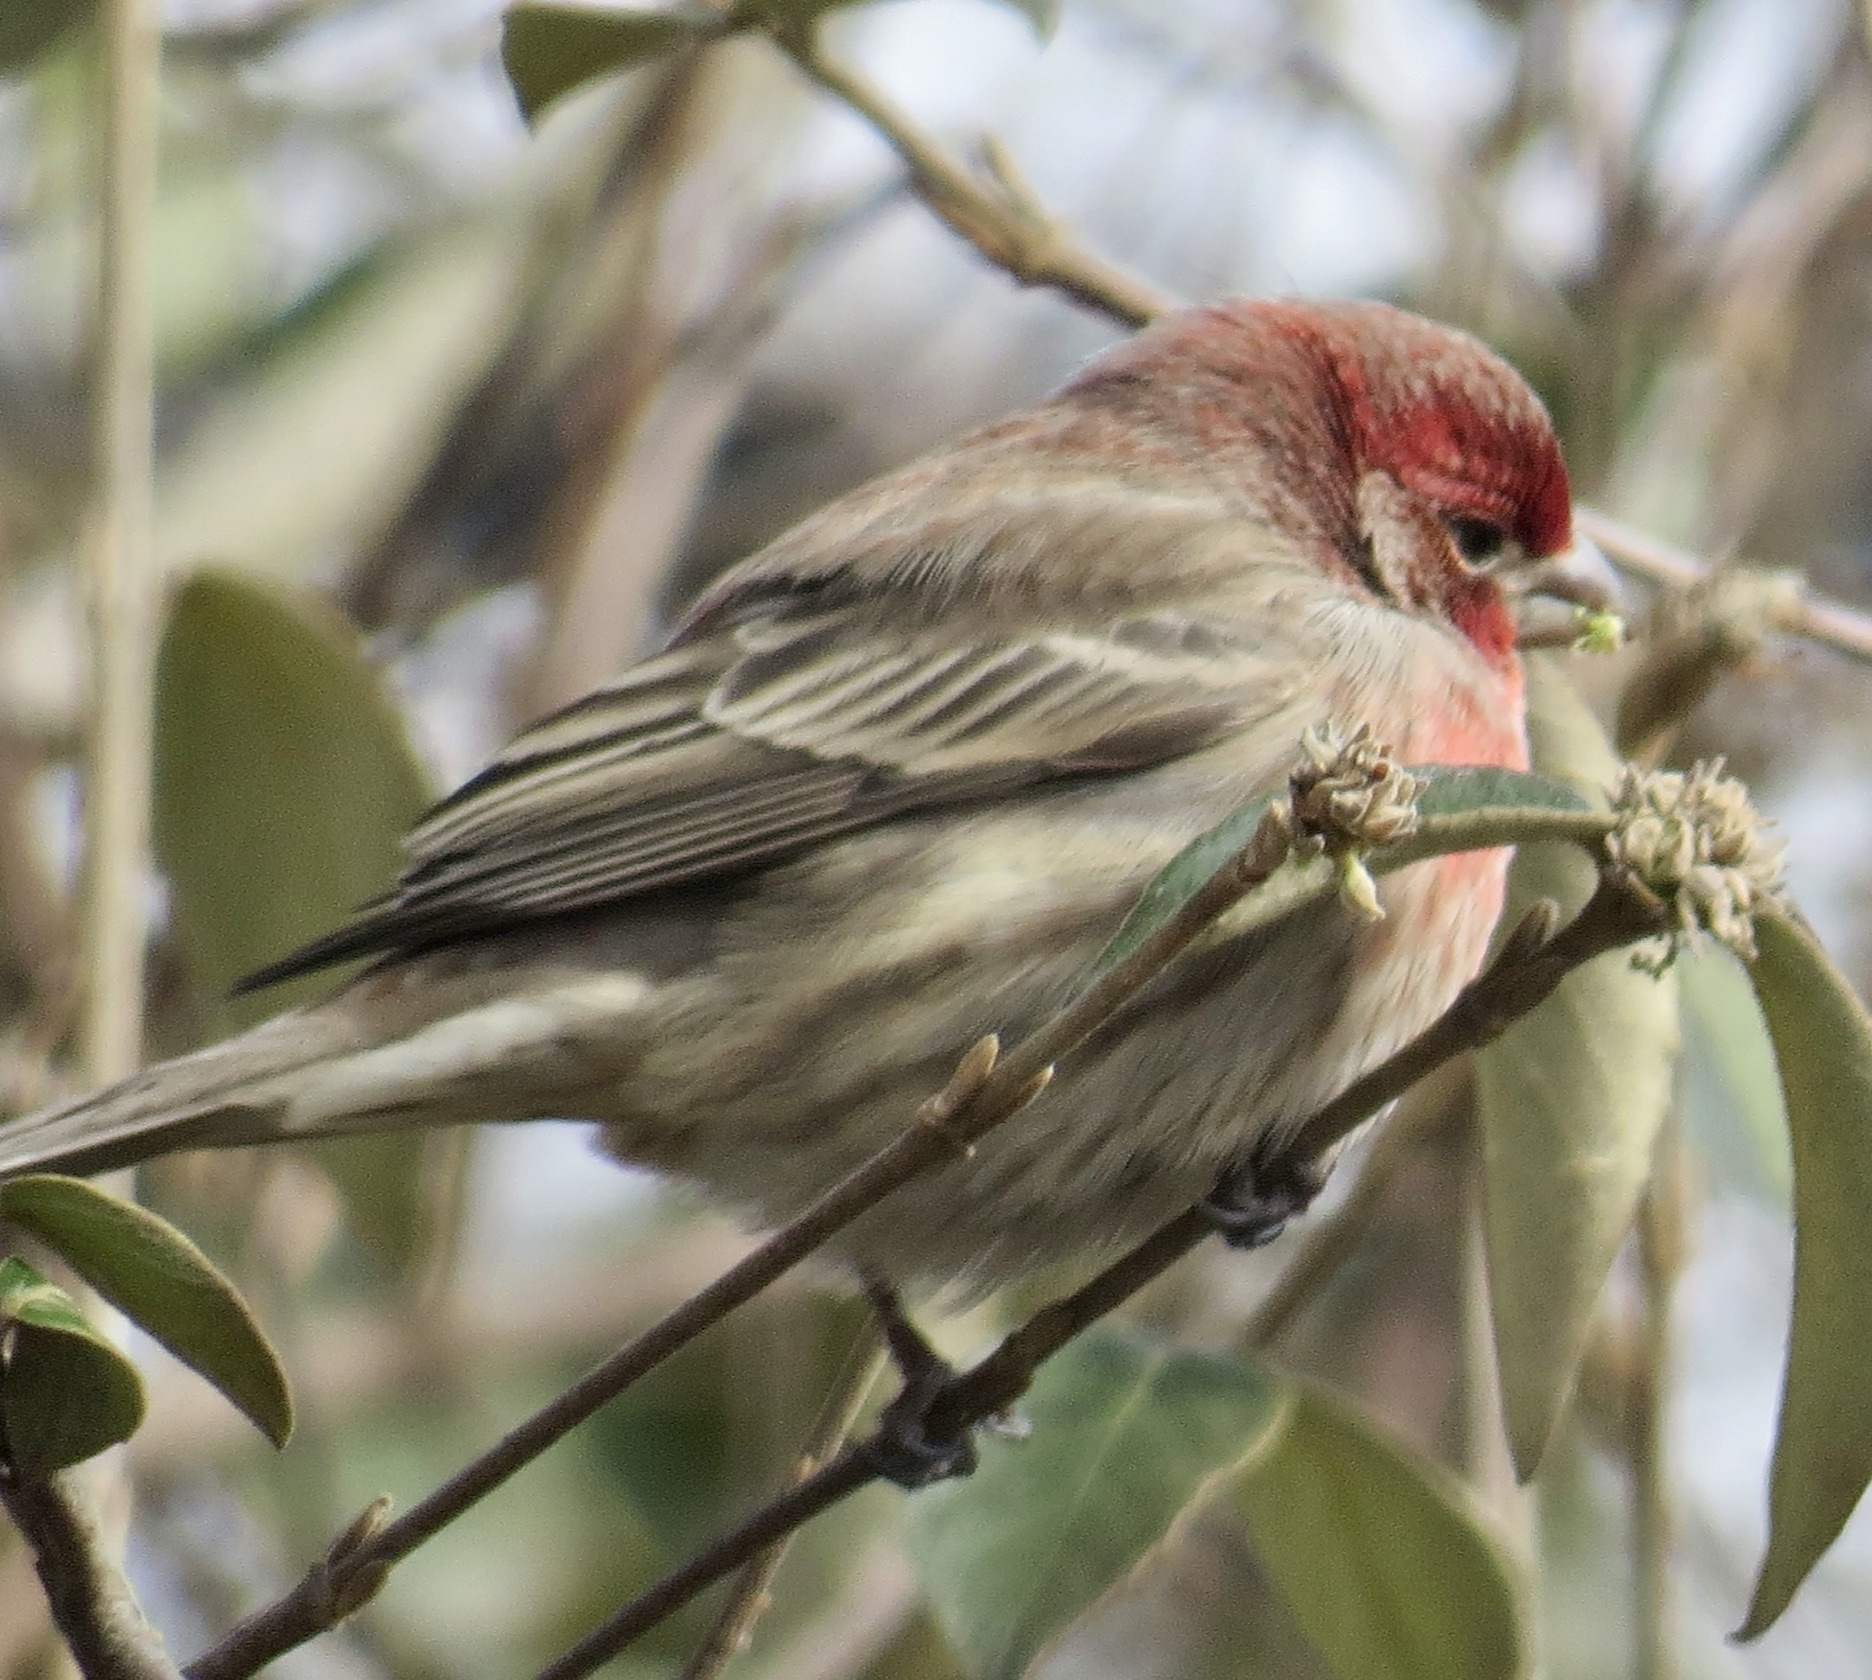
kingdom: Animalia
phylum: Chordata
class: Aves
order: Passeriformes
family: Fringillidae
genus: Haemorhous
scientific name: Haemorhous mexicanus
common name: House finch
